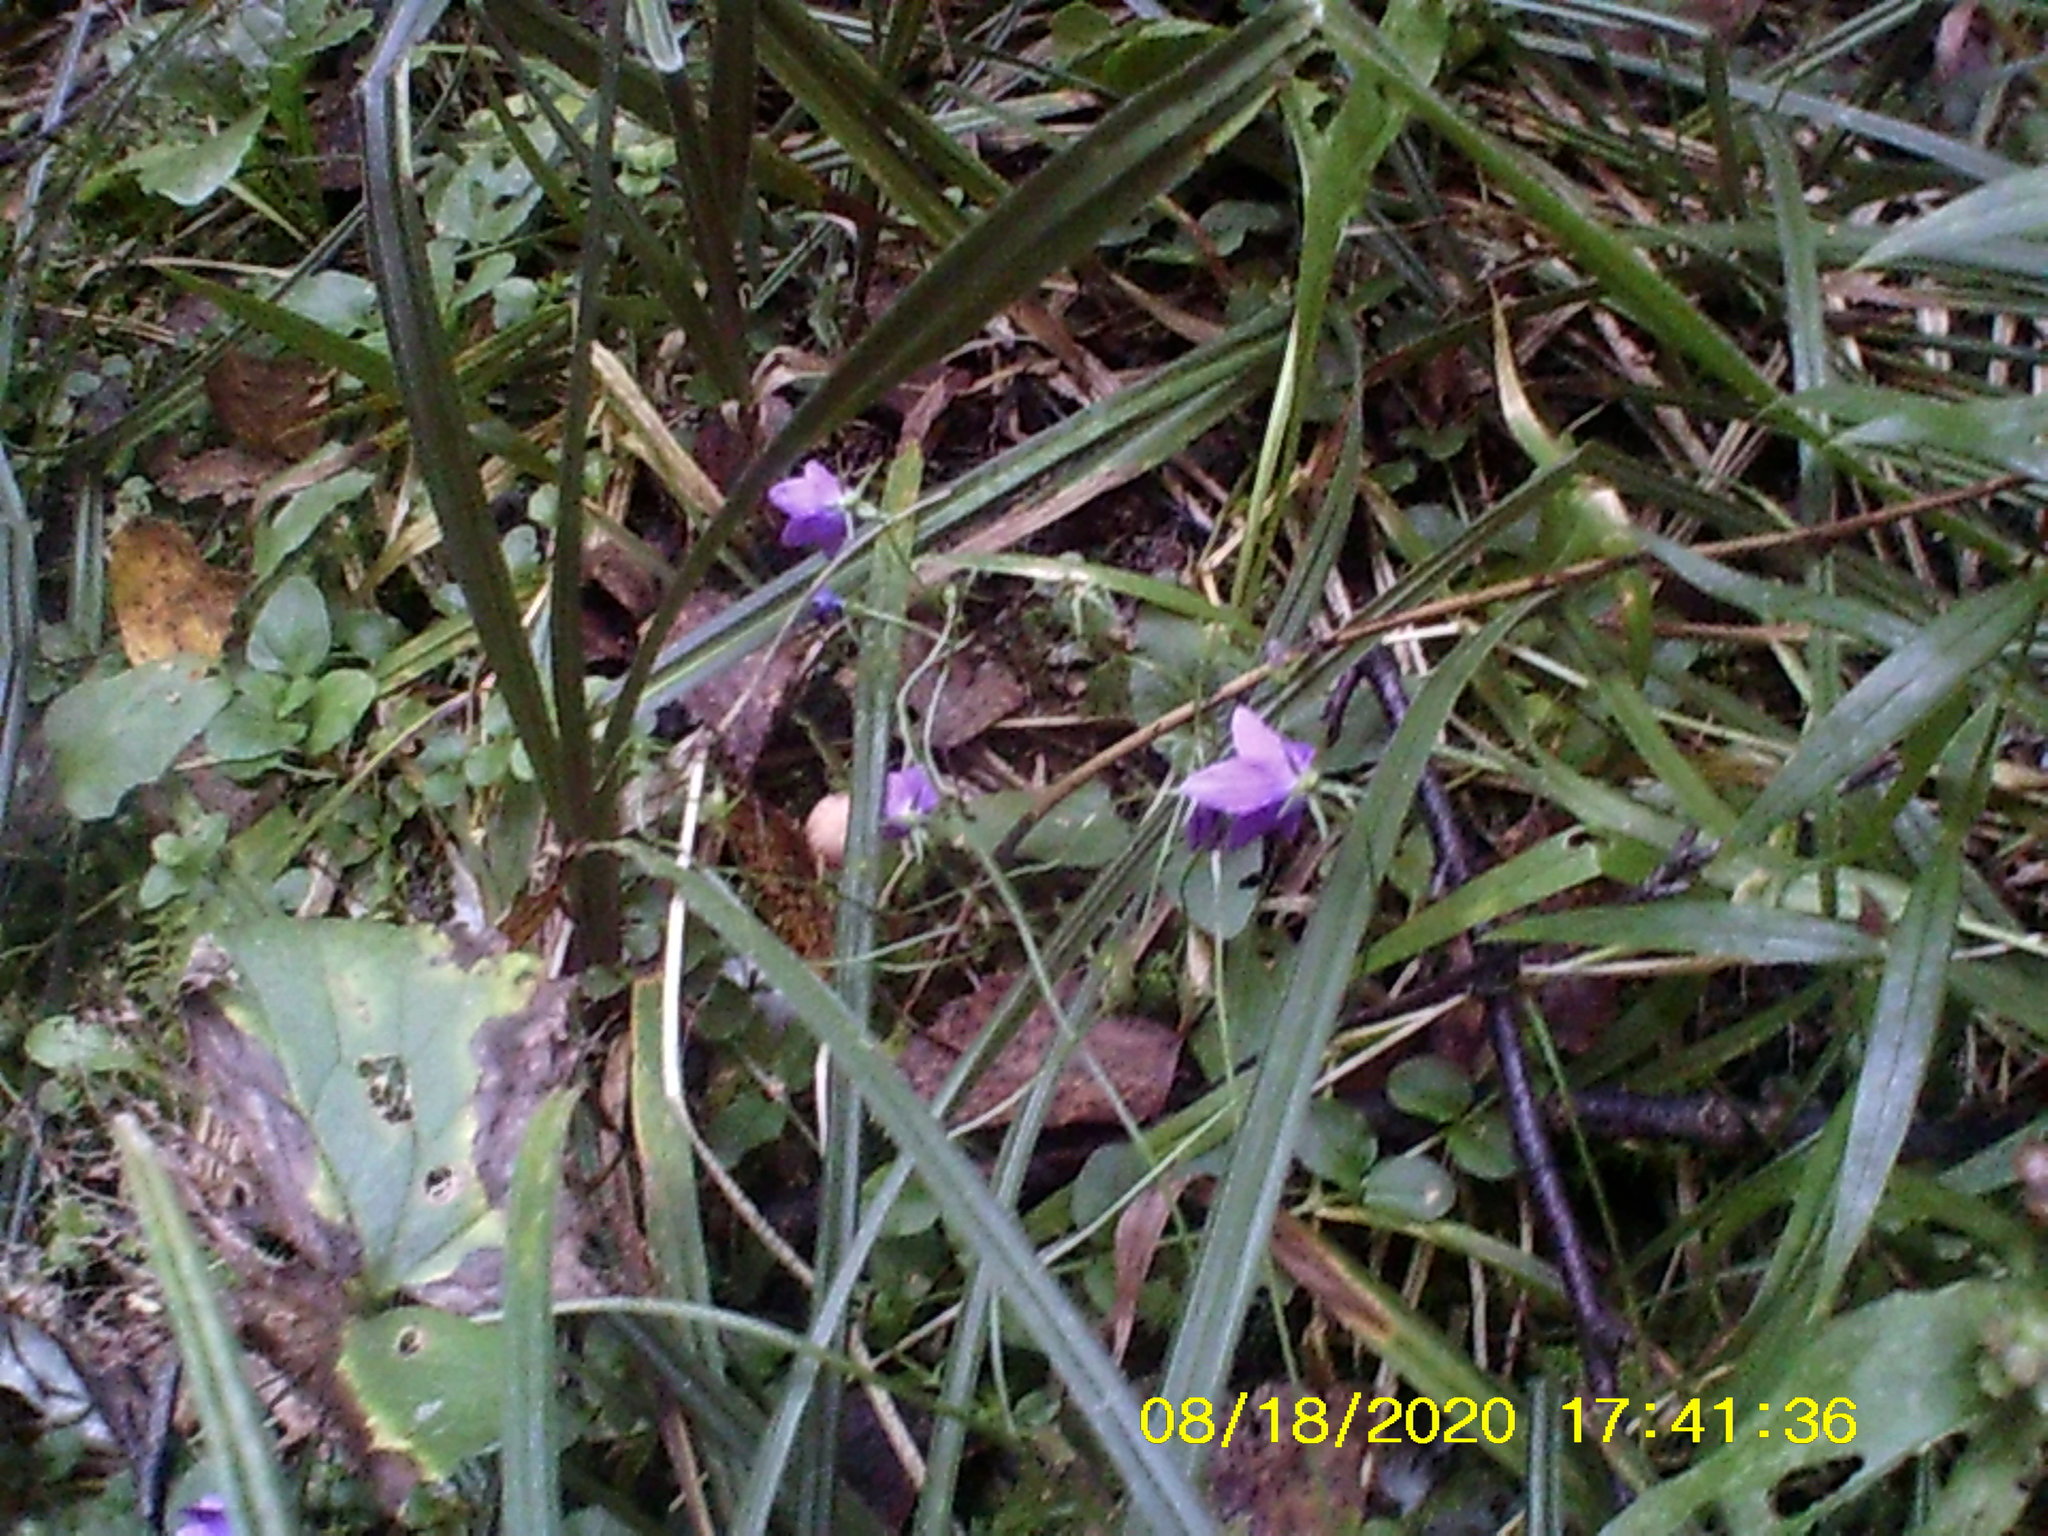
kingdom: Plantae
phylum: Tracheophyta
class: Magnoliopsida
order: Asterales
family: Campanulaceae
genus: Campanula
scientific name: Campanula patula
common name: Spreading bellflower
